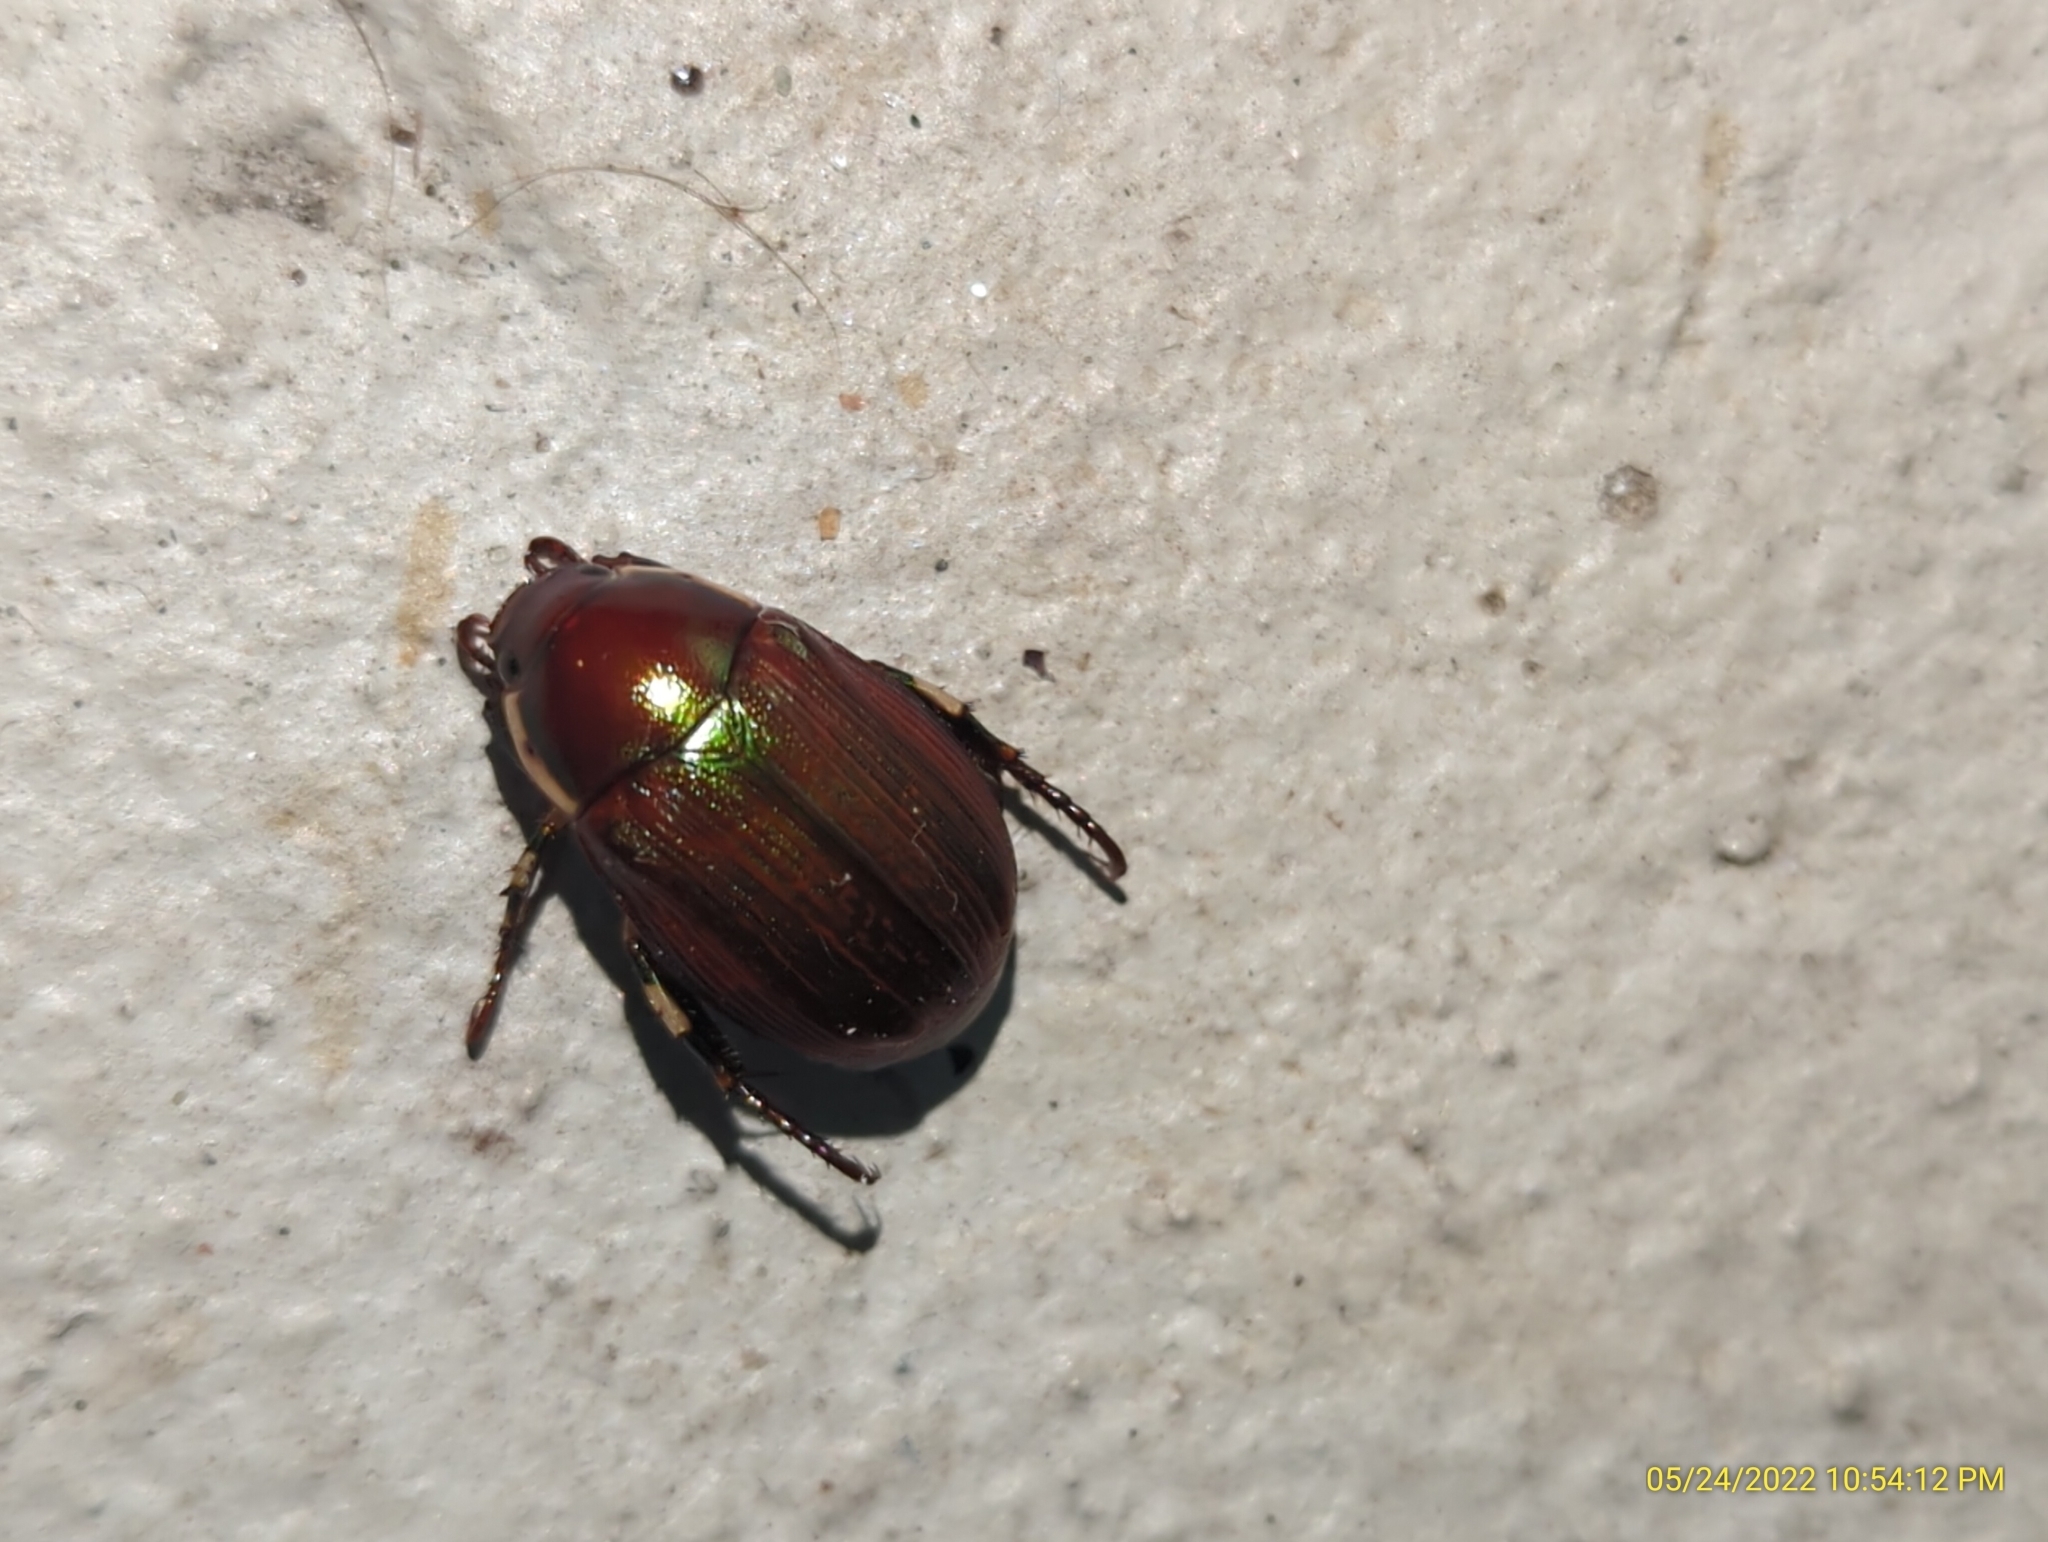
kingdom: Animalia
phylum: Arthropoda
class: Insecta
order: Coleoptera
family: Scarabaeidae
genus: Callistethus
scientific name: Callistethus marginatus
